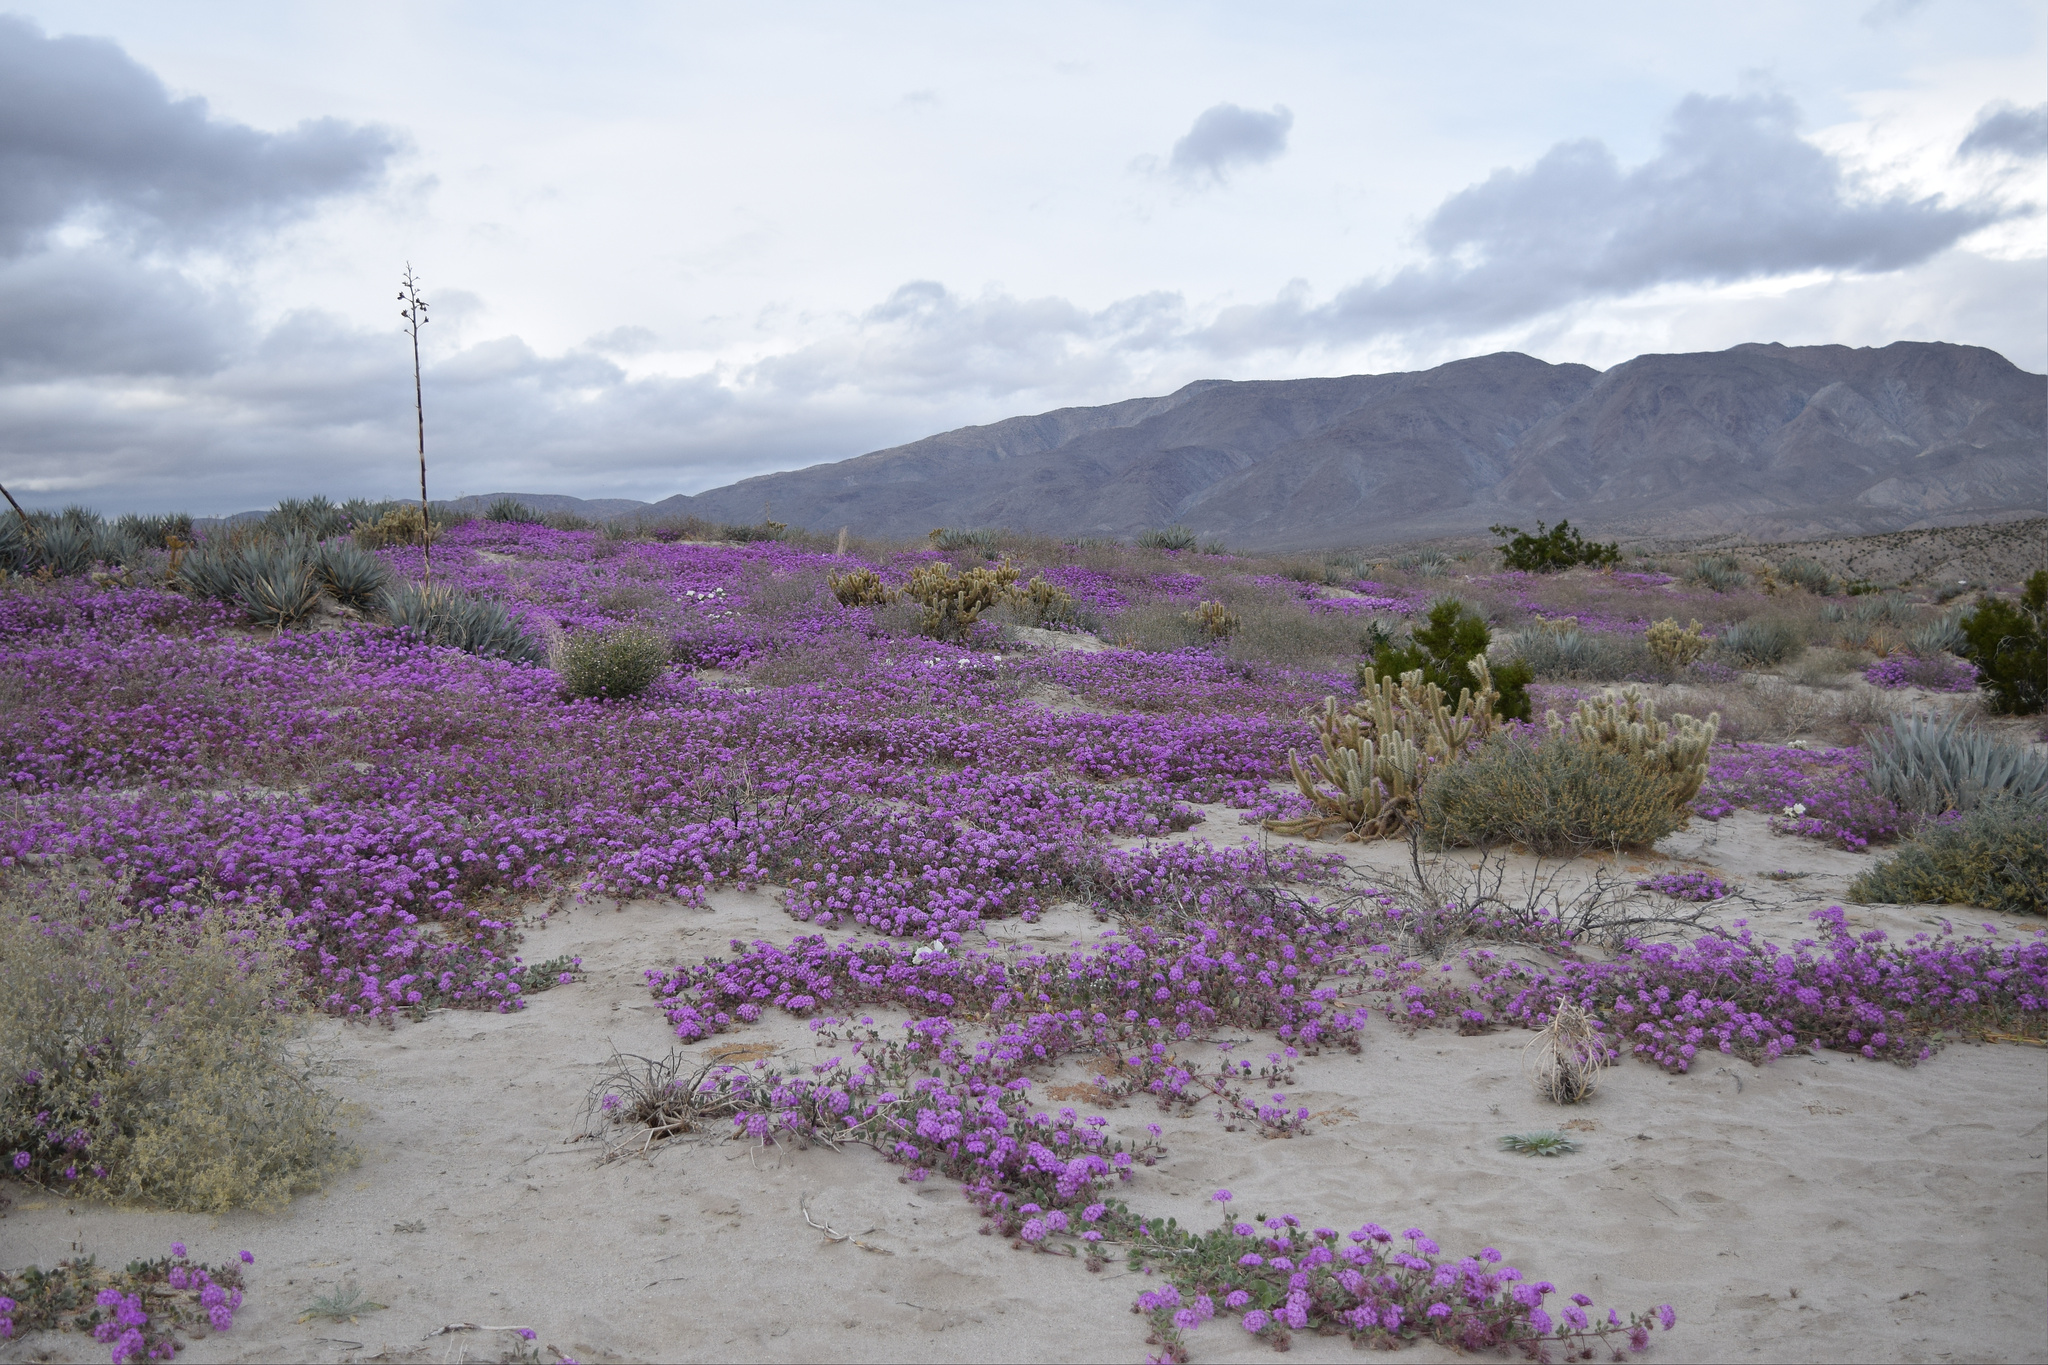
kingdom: Plantae
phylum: Tracheophyta
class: Magnoliopsida
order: Caryophyllales
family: Nyctaginaceae
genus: Abronia
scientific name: Abronia villosa
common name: Desert sand-verbena
